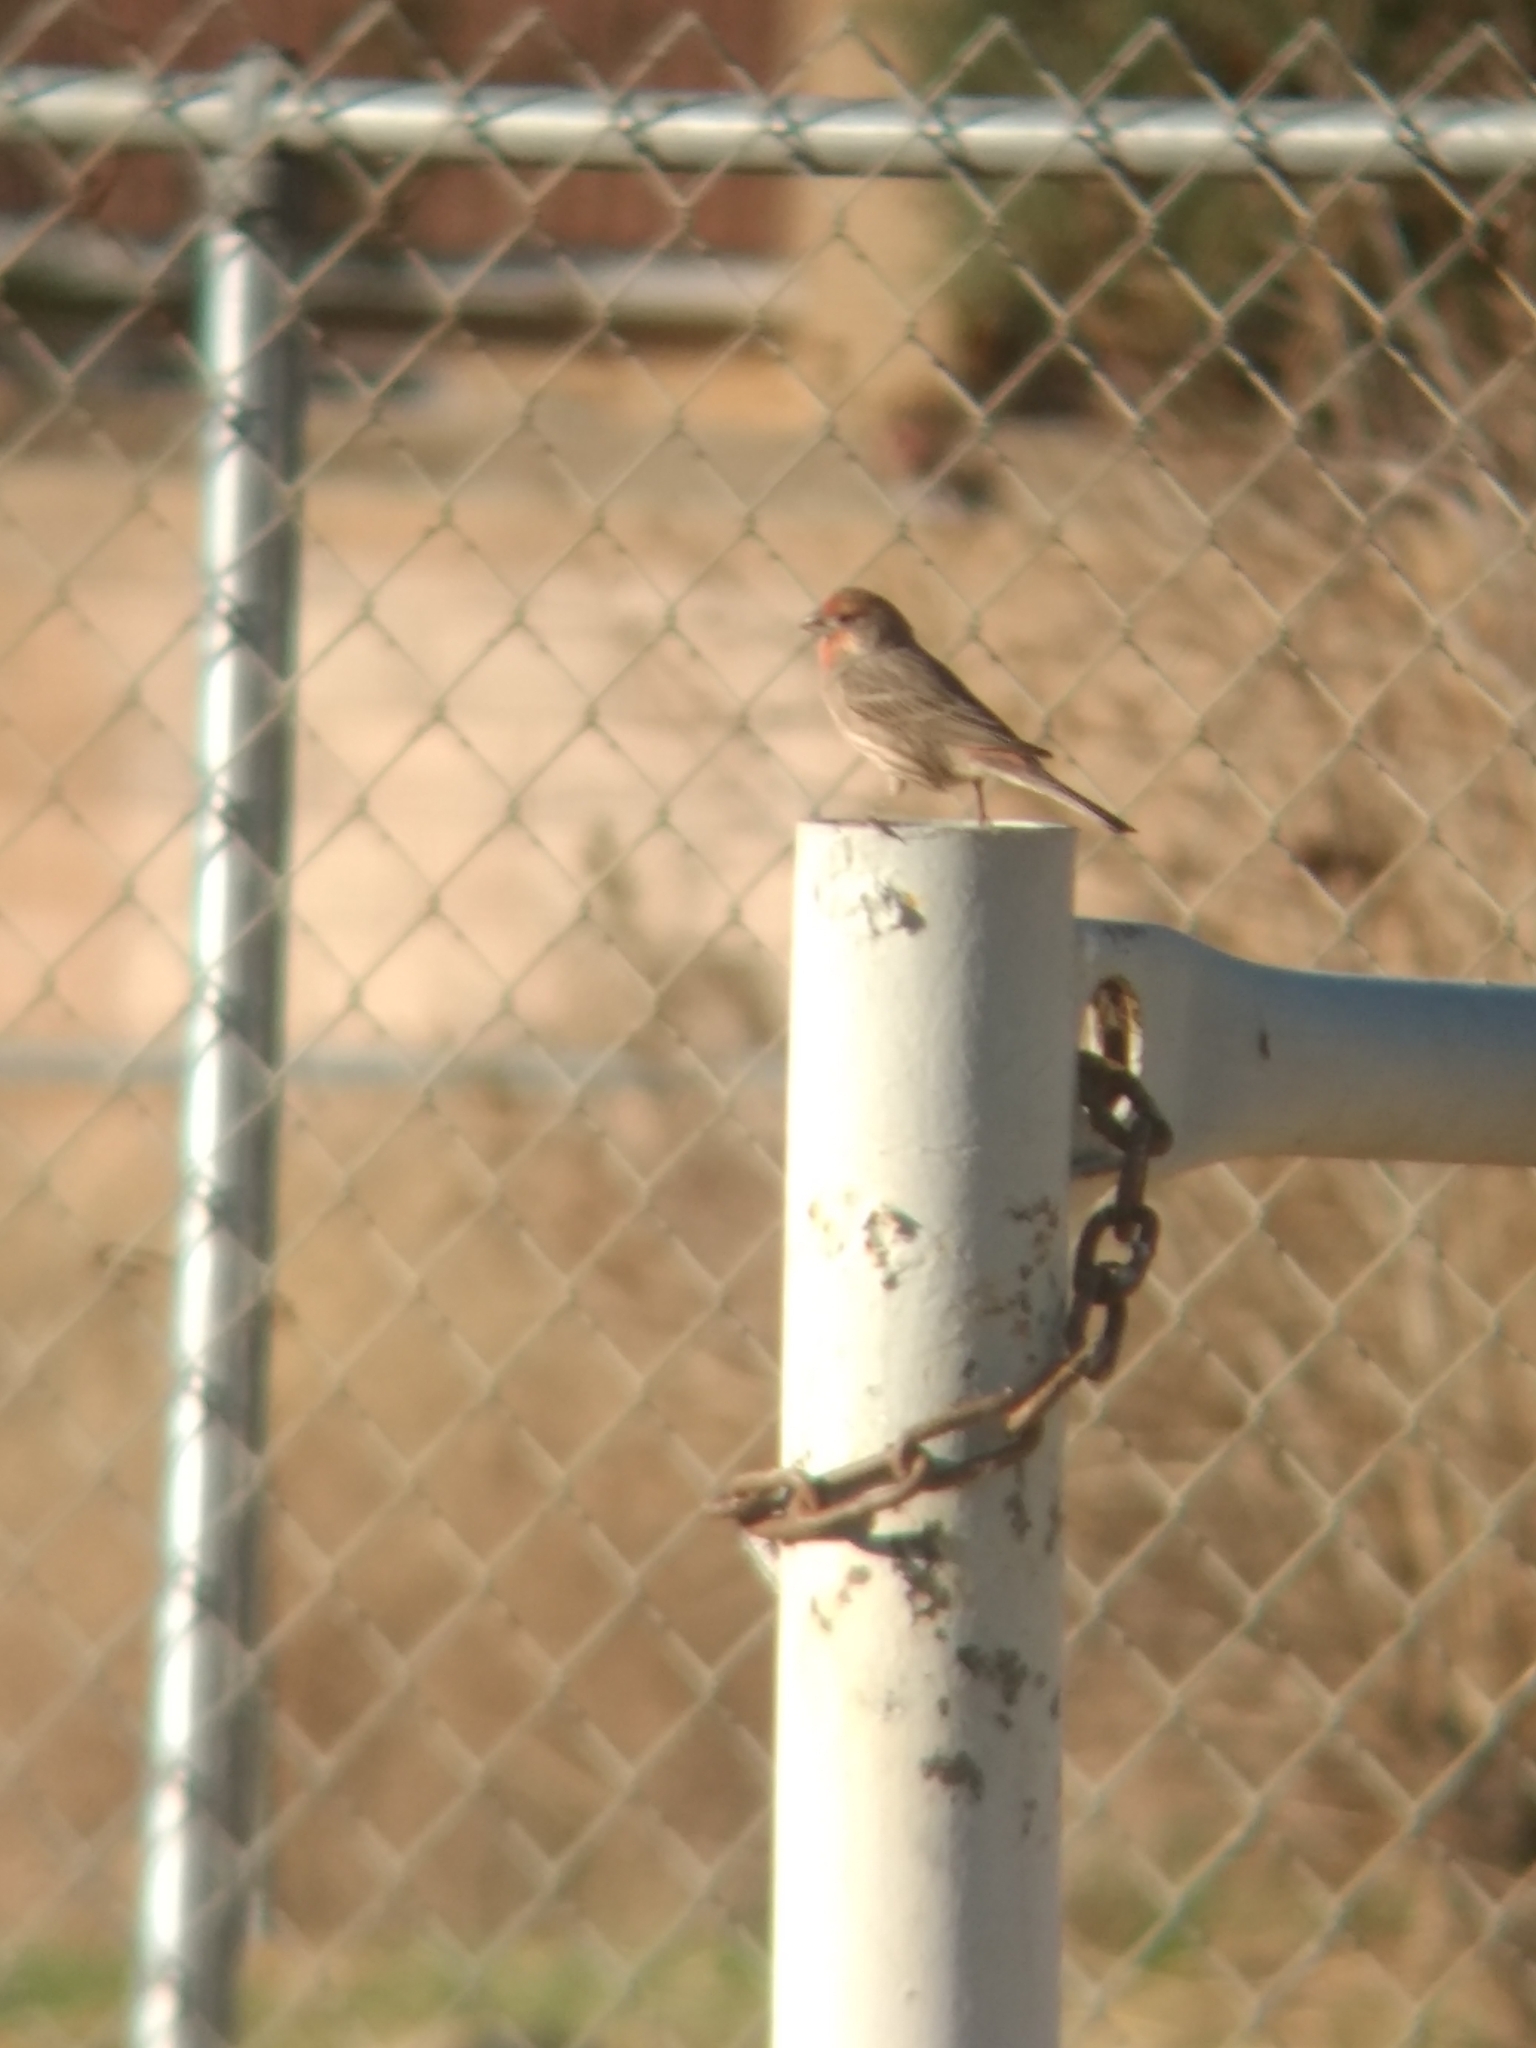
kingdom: Animalia
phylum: Chordata
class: Aves
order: Passeriformes
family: Fringillidae
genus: Haemorhous
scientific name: Haemorhous mexicanus
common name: House finch
